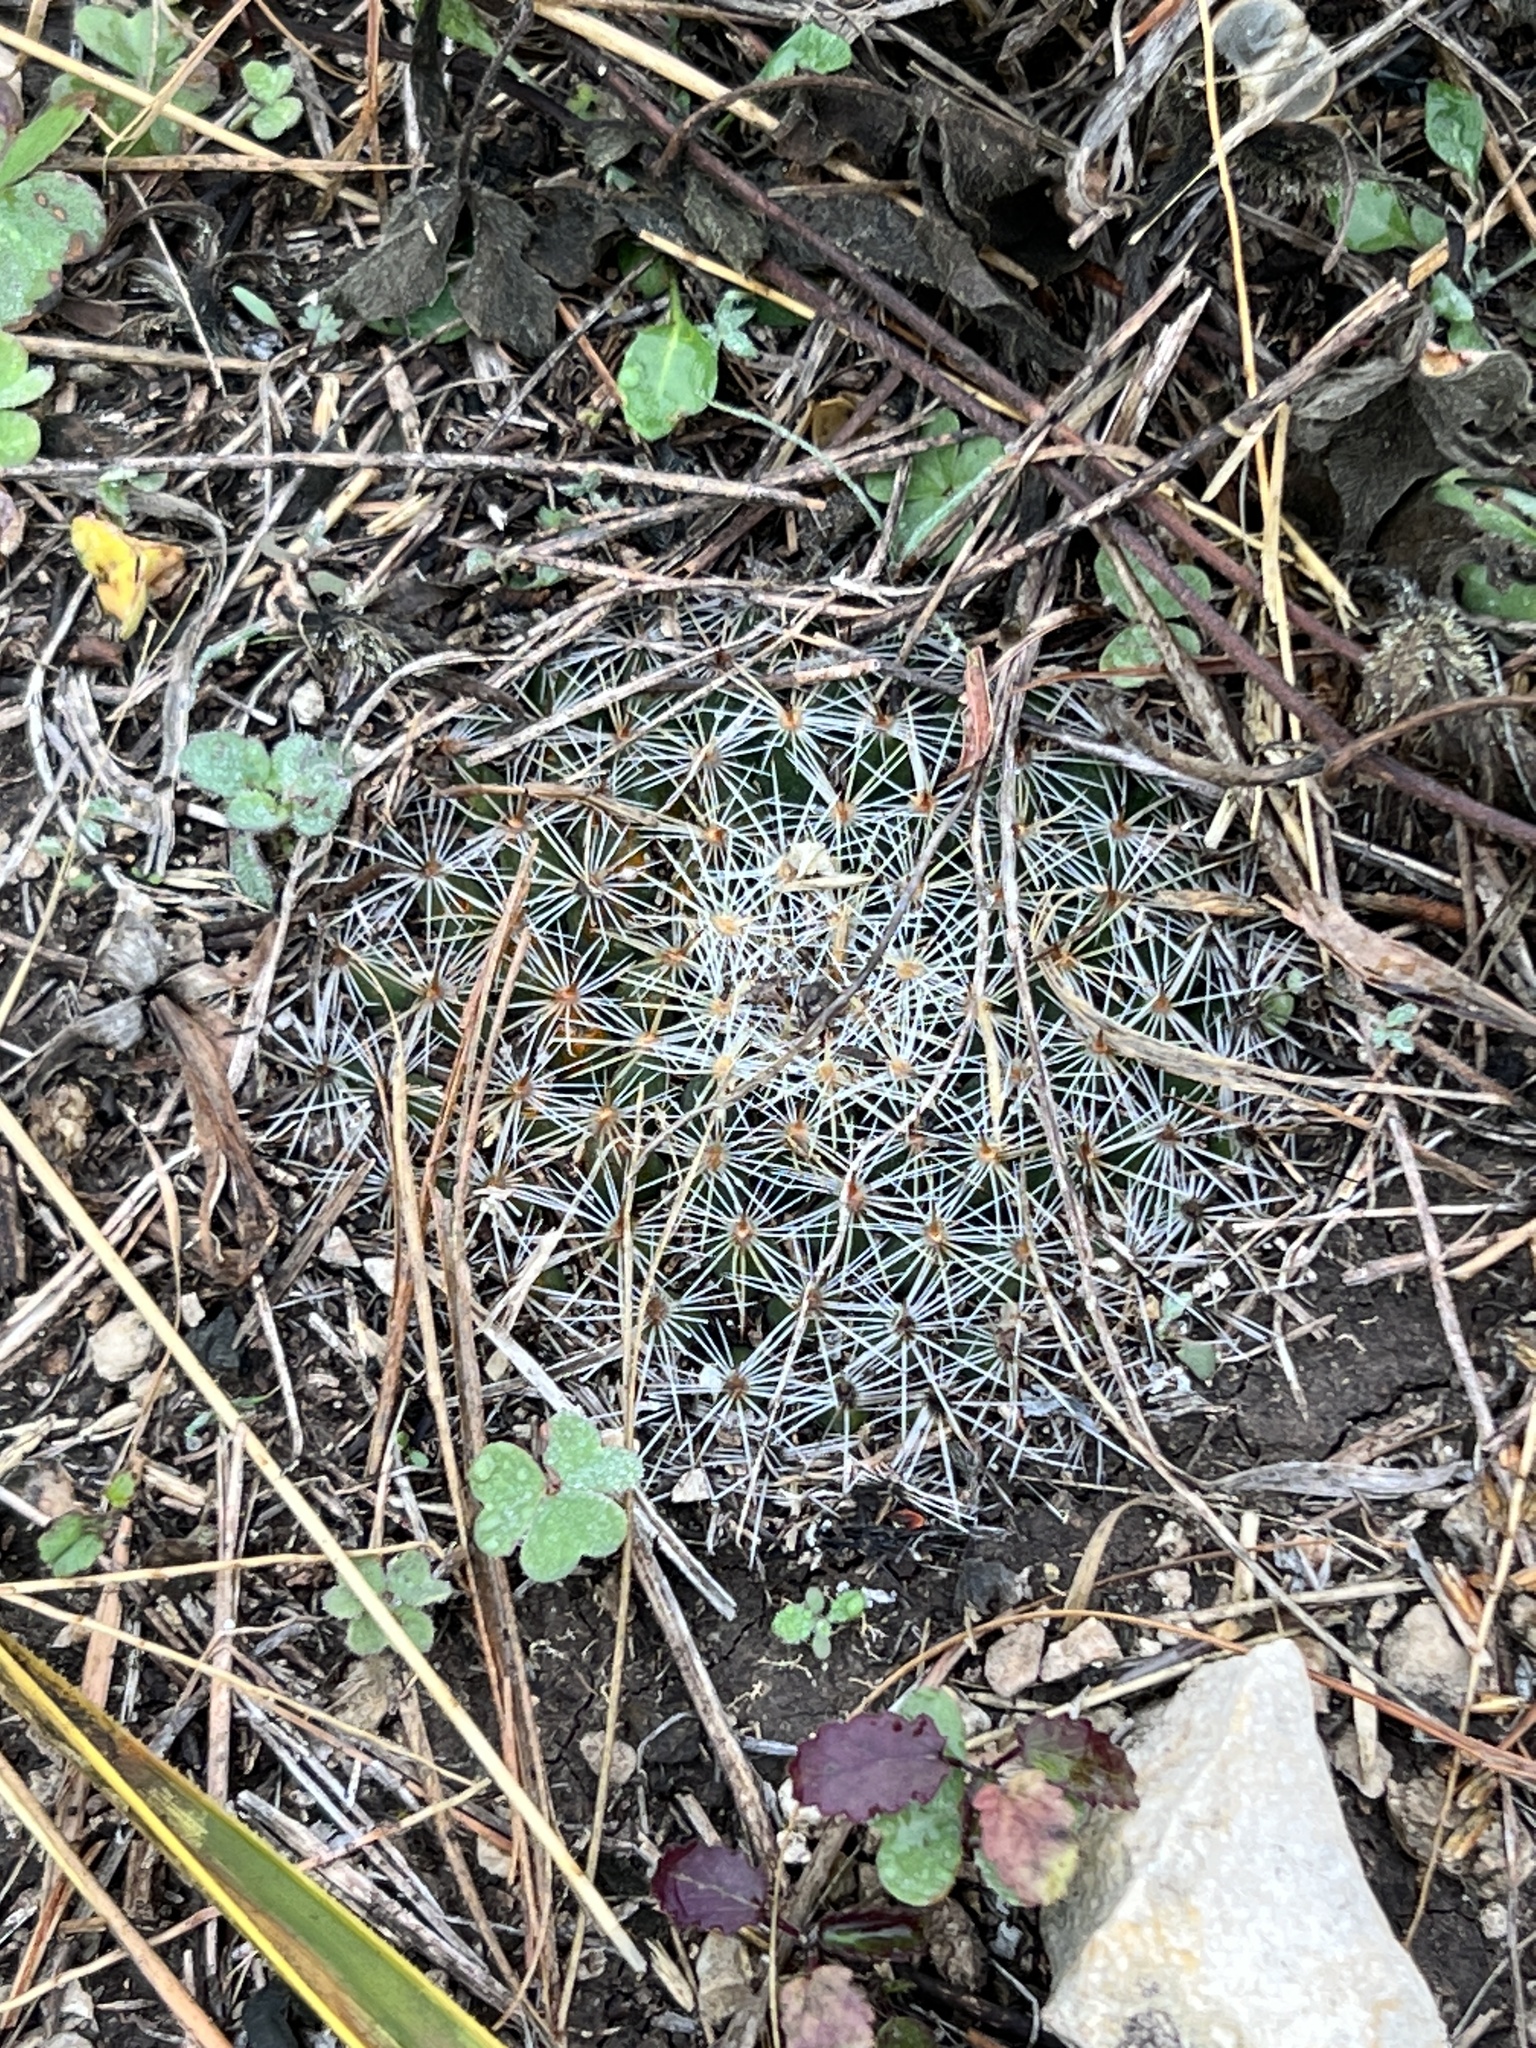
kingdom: Plantae
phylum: Tracheophyta
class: Magnoliopsida
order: Caryophyllales
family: Cactaceae
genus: Mammillaria
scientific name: Mammillaria heyderi
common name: Little nipple cactus
